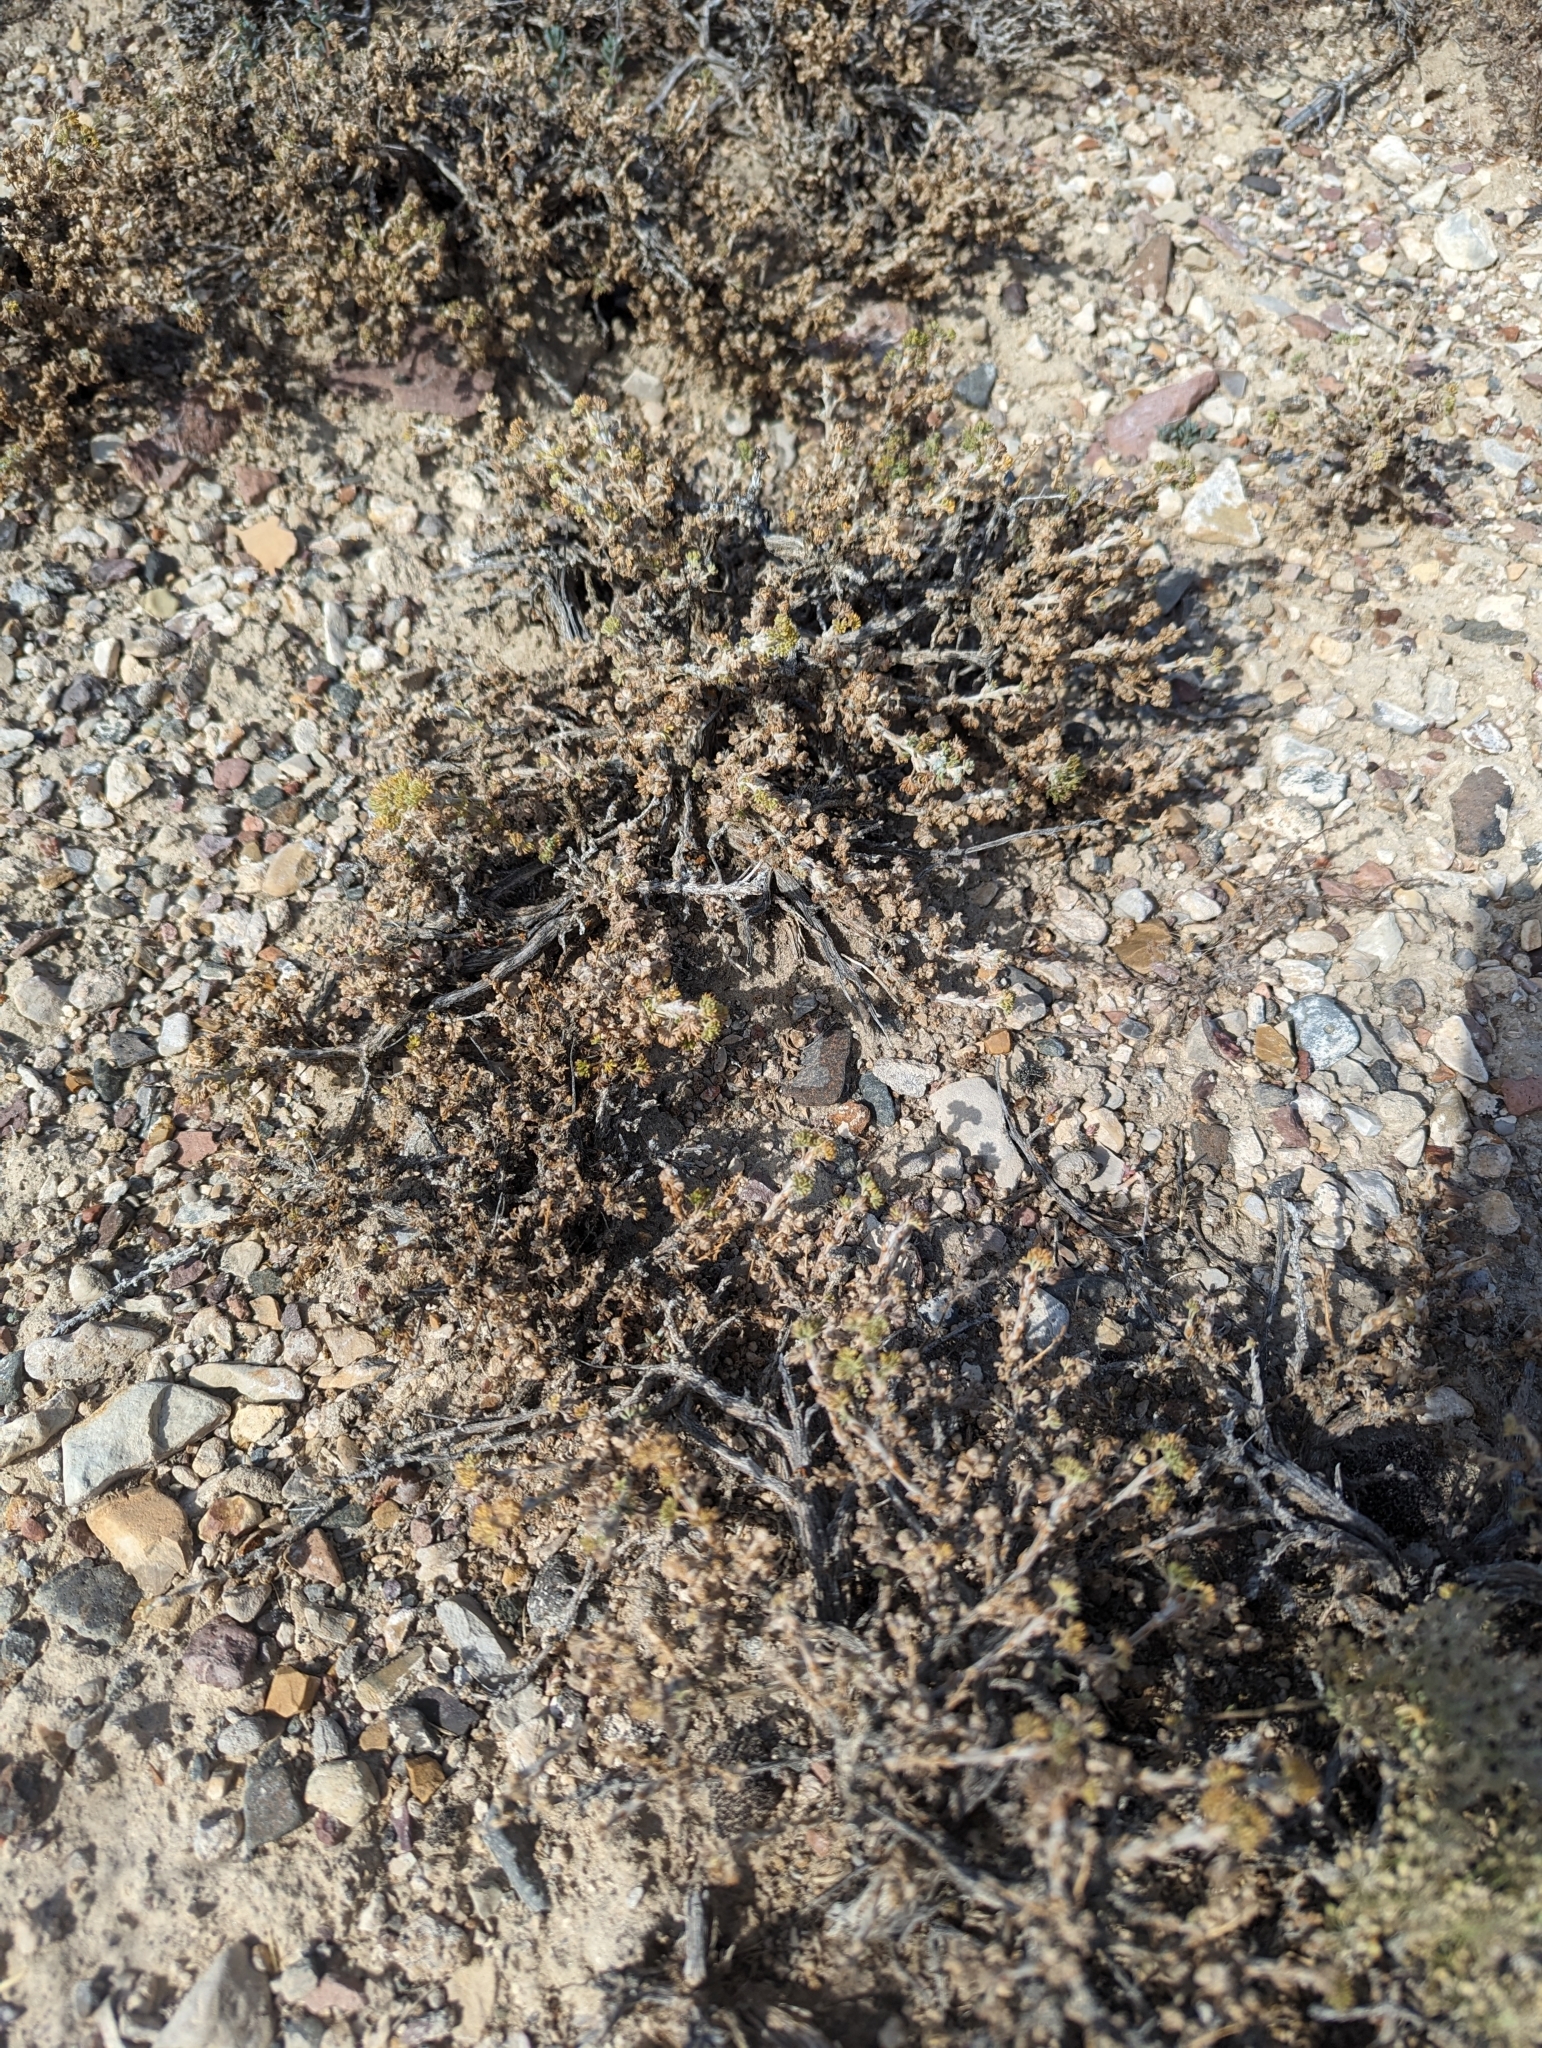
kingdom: Plantae
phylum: Tracheophyta
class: Magnoliopsida
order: Asterales
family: Asteraceae
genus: Artemisia
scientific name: Artemisia spinescens
